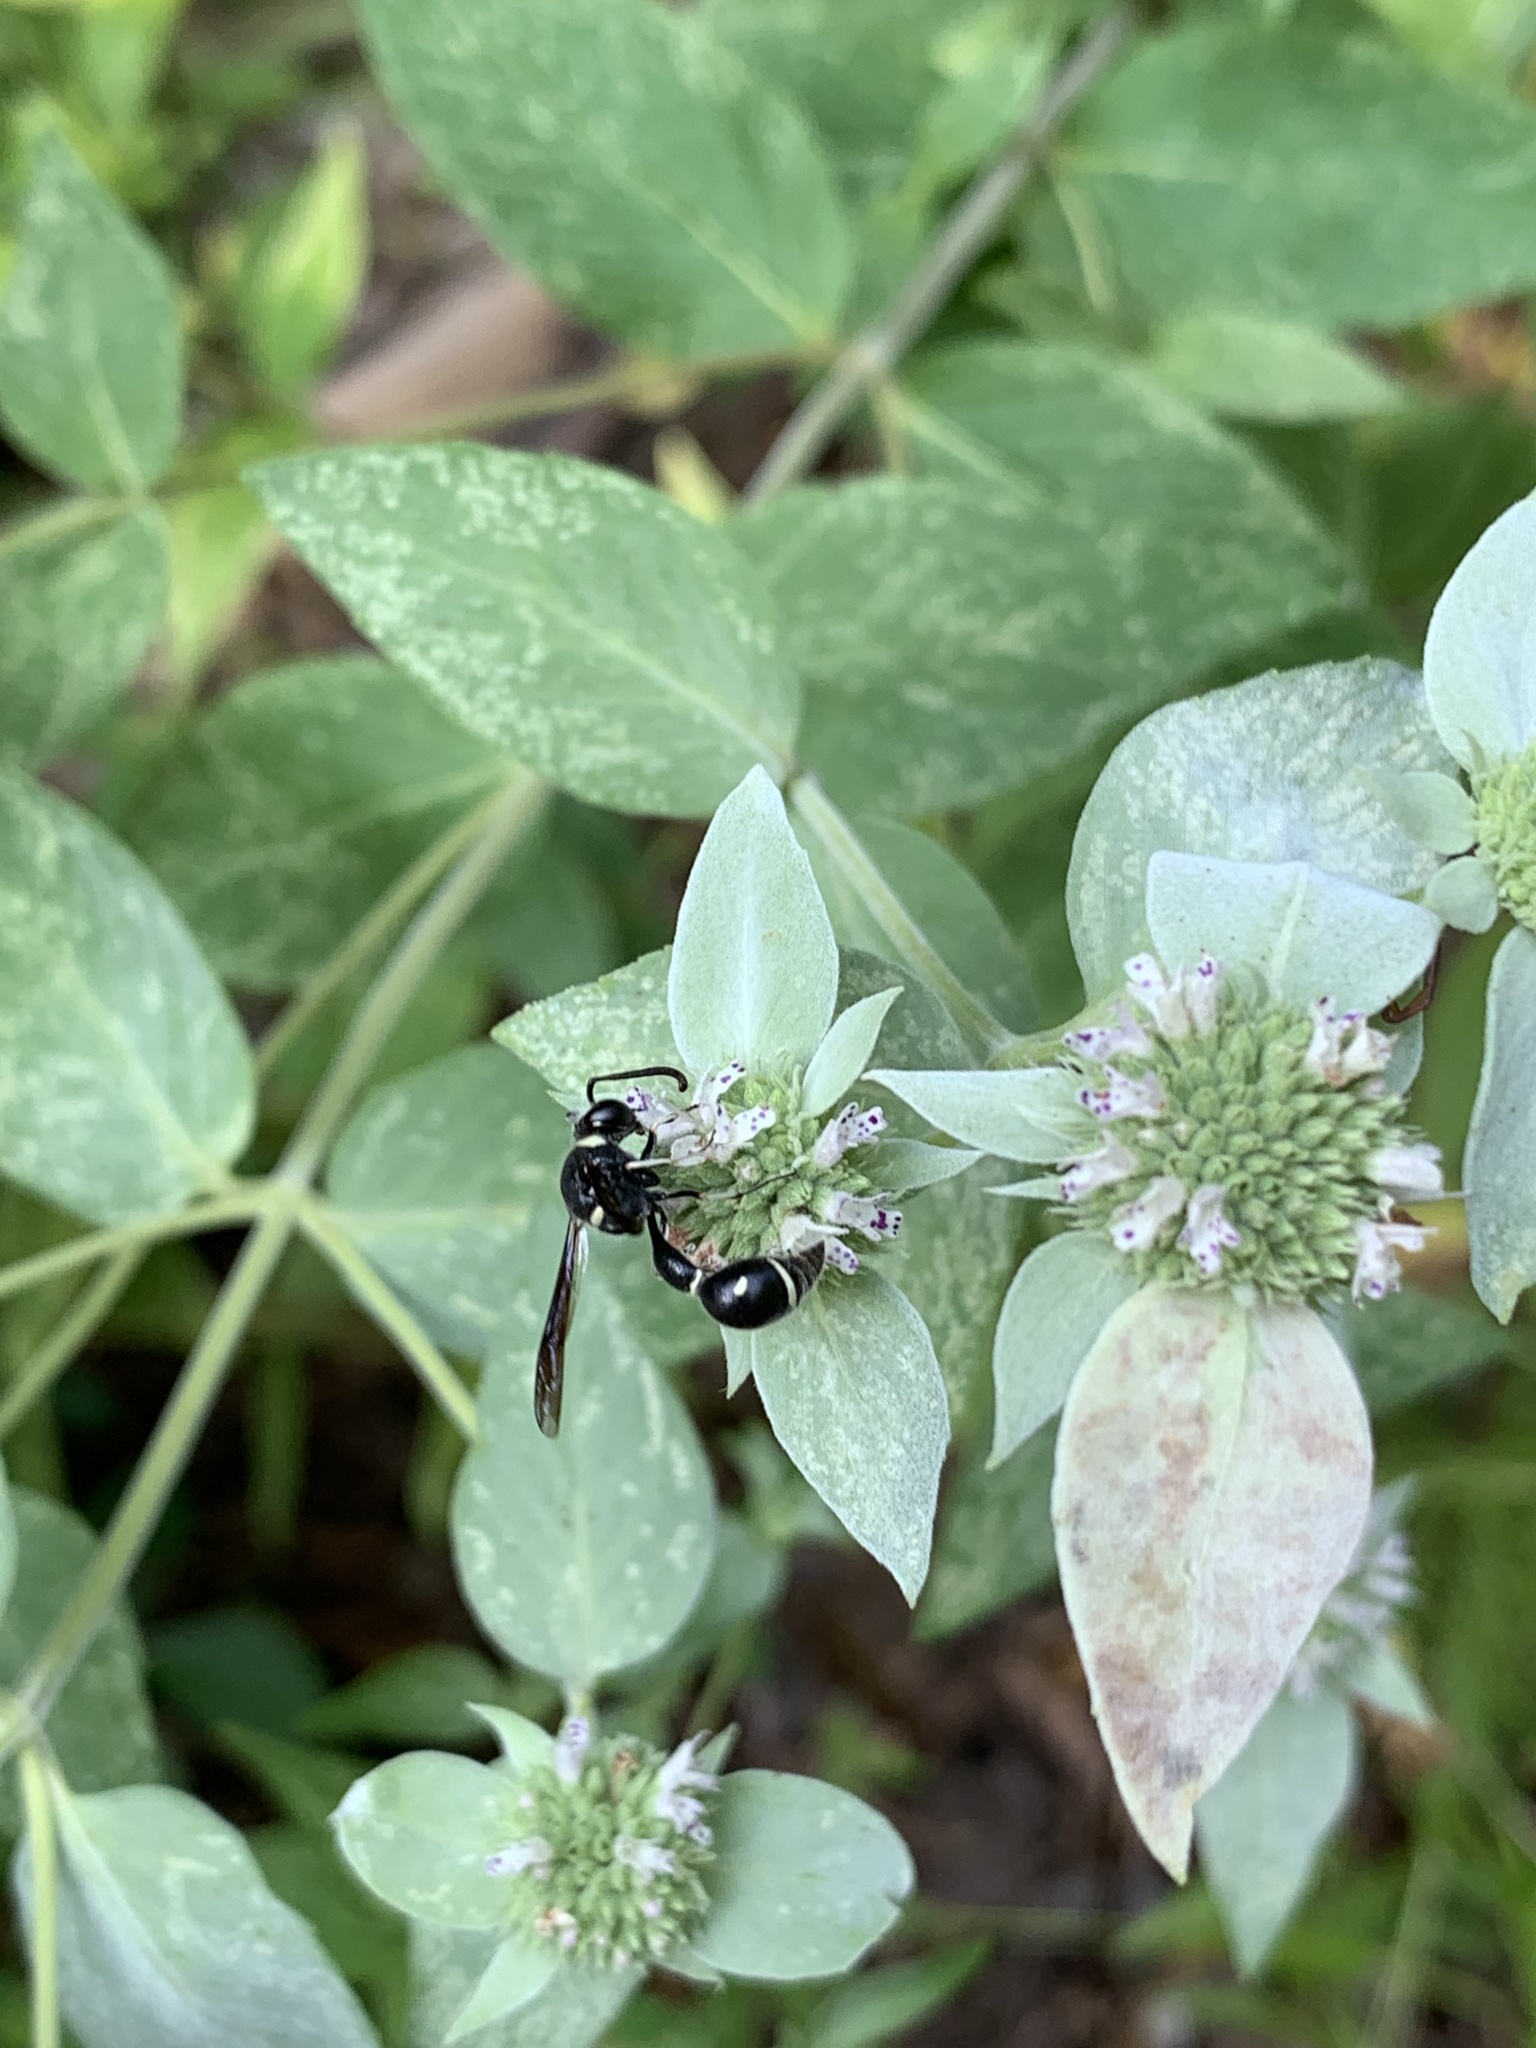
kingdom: Animalia
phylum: Arthropoda
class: Insecta
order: Hymenoptera
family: Vespidae
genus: Eumenes
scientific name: Eumenes fraternus
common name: Fraternal potter wasp
